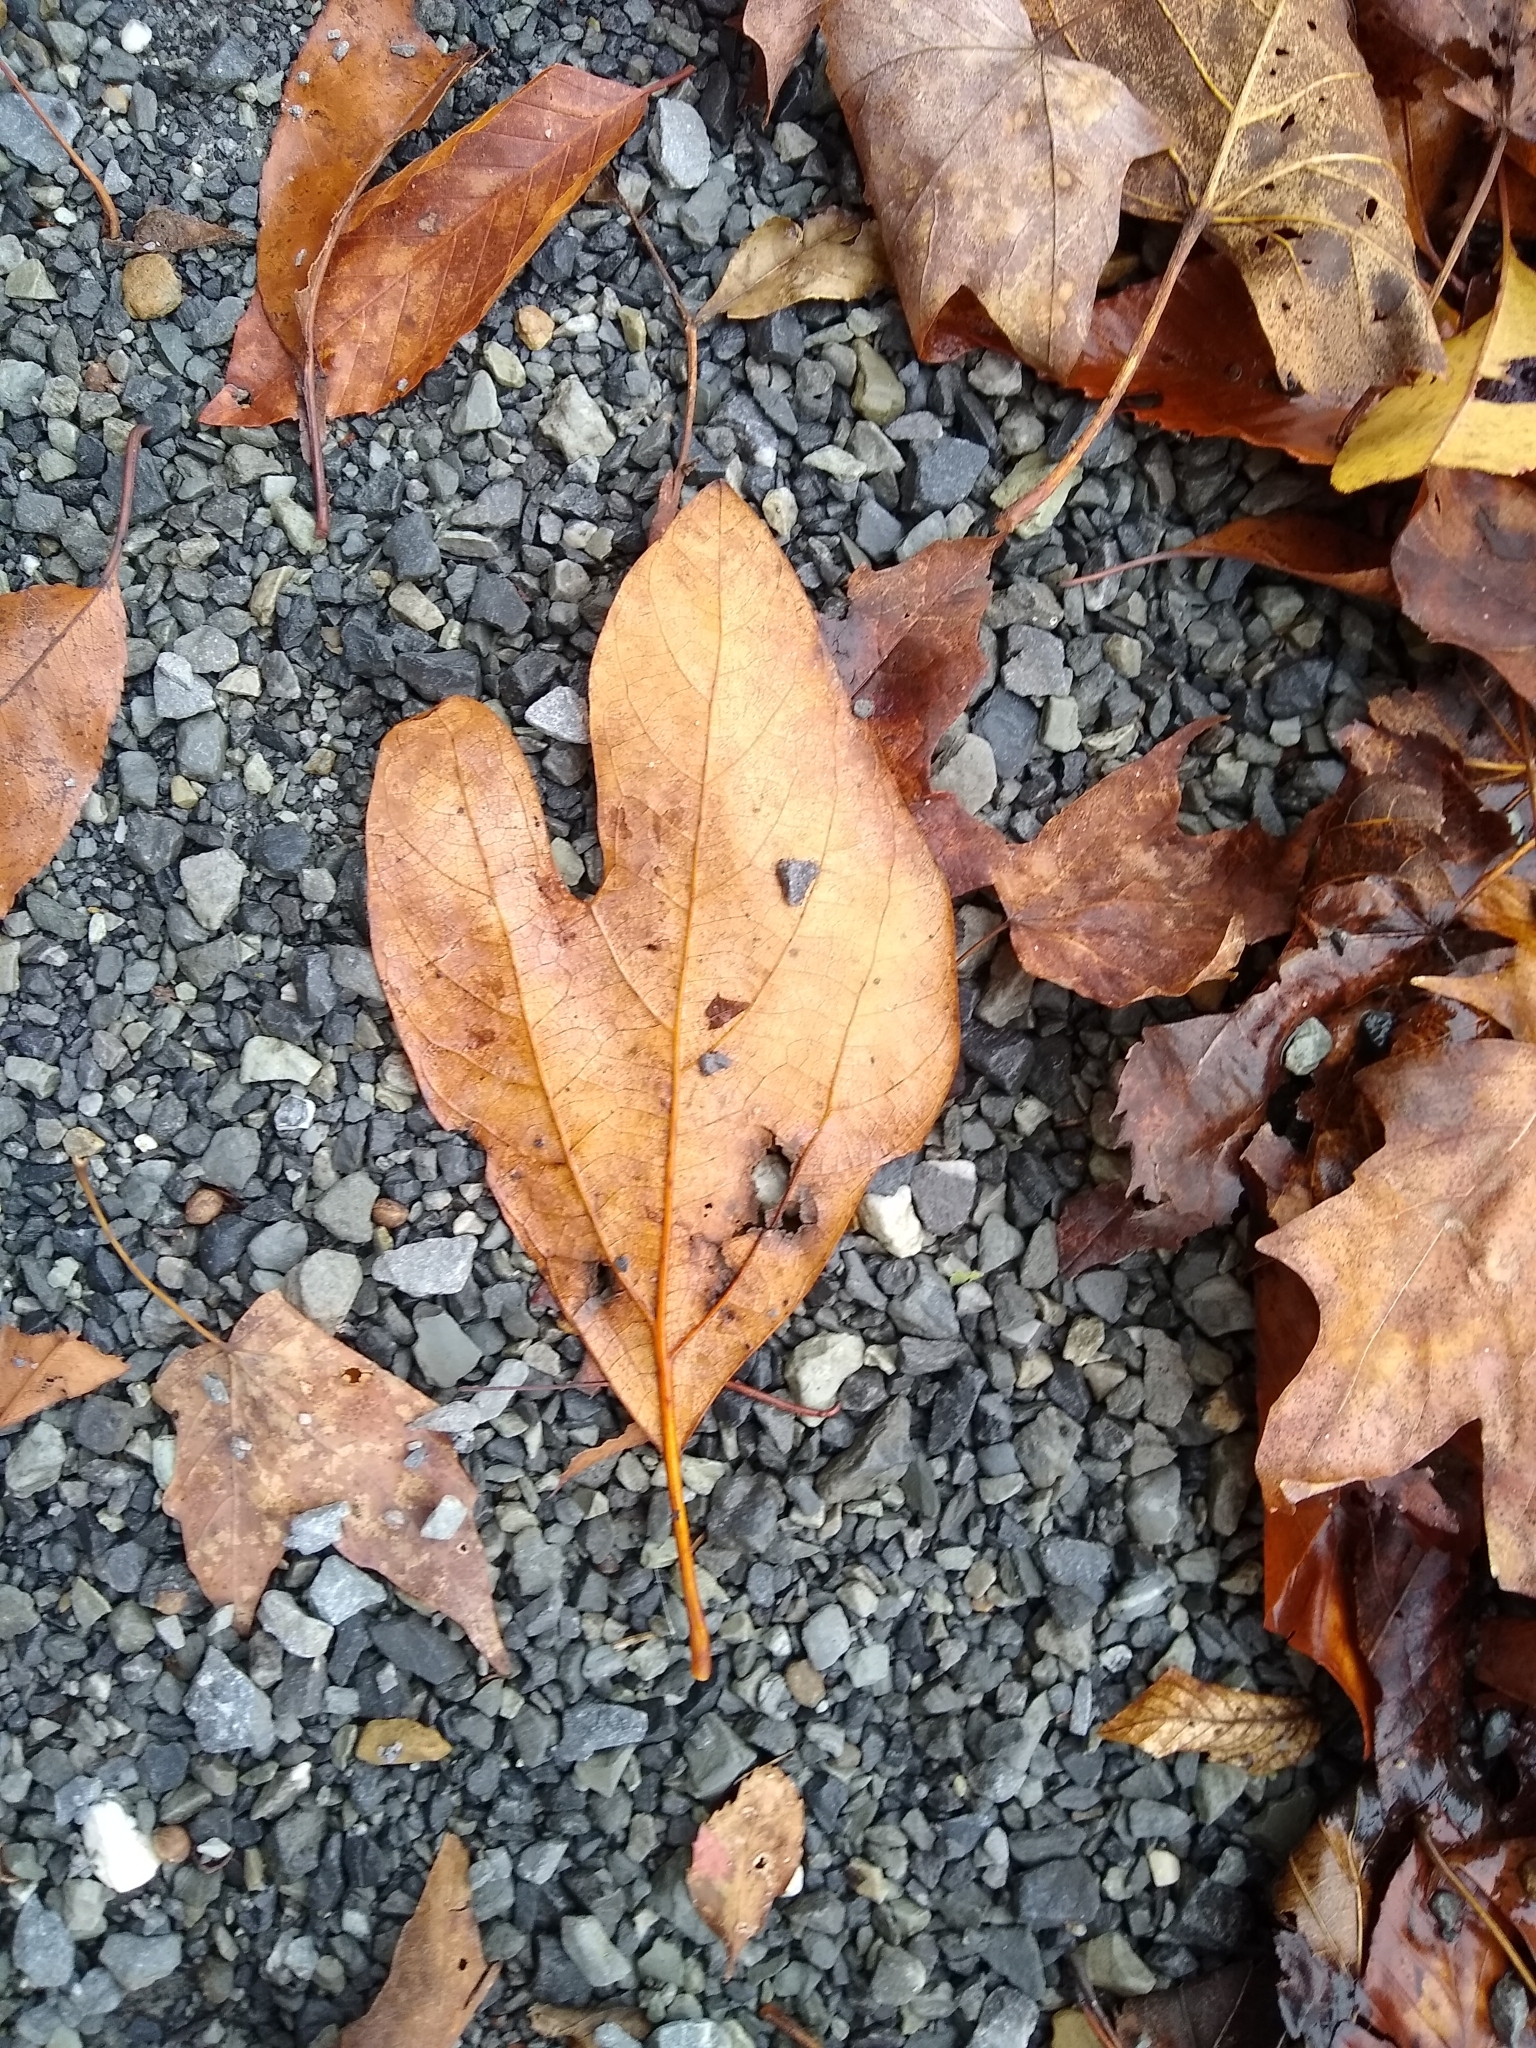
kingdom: Plantae
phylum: Tracheophyta
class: Magnoliopsida
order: Laurales
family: Lauraceae
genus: Sassafras
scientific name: Sassafras albidum
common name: Sassafras
